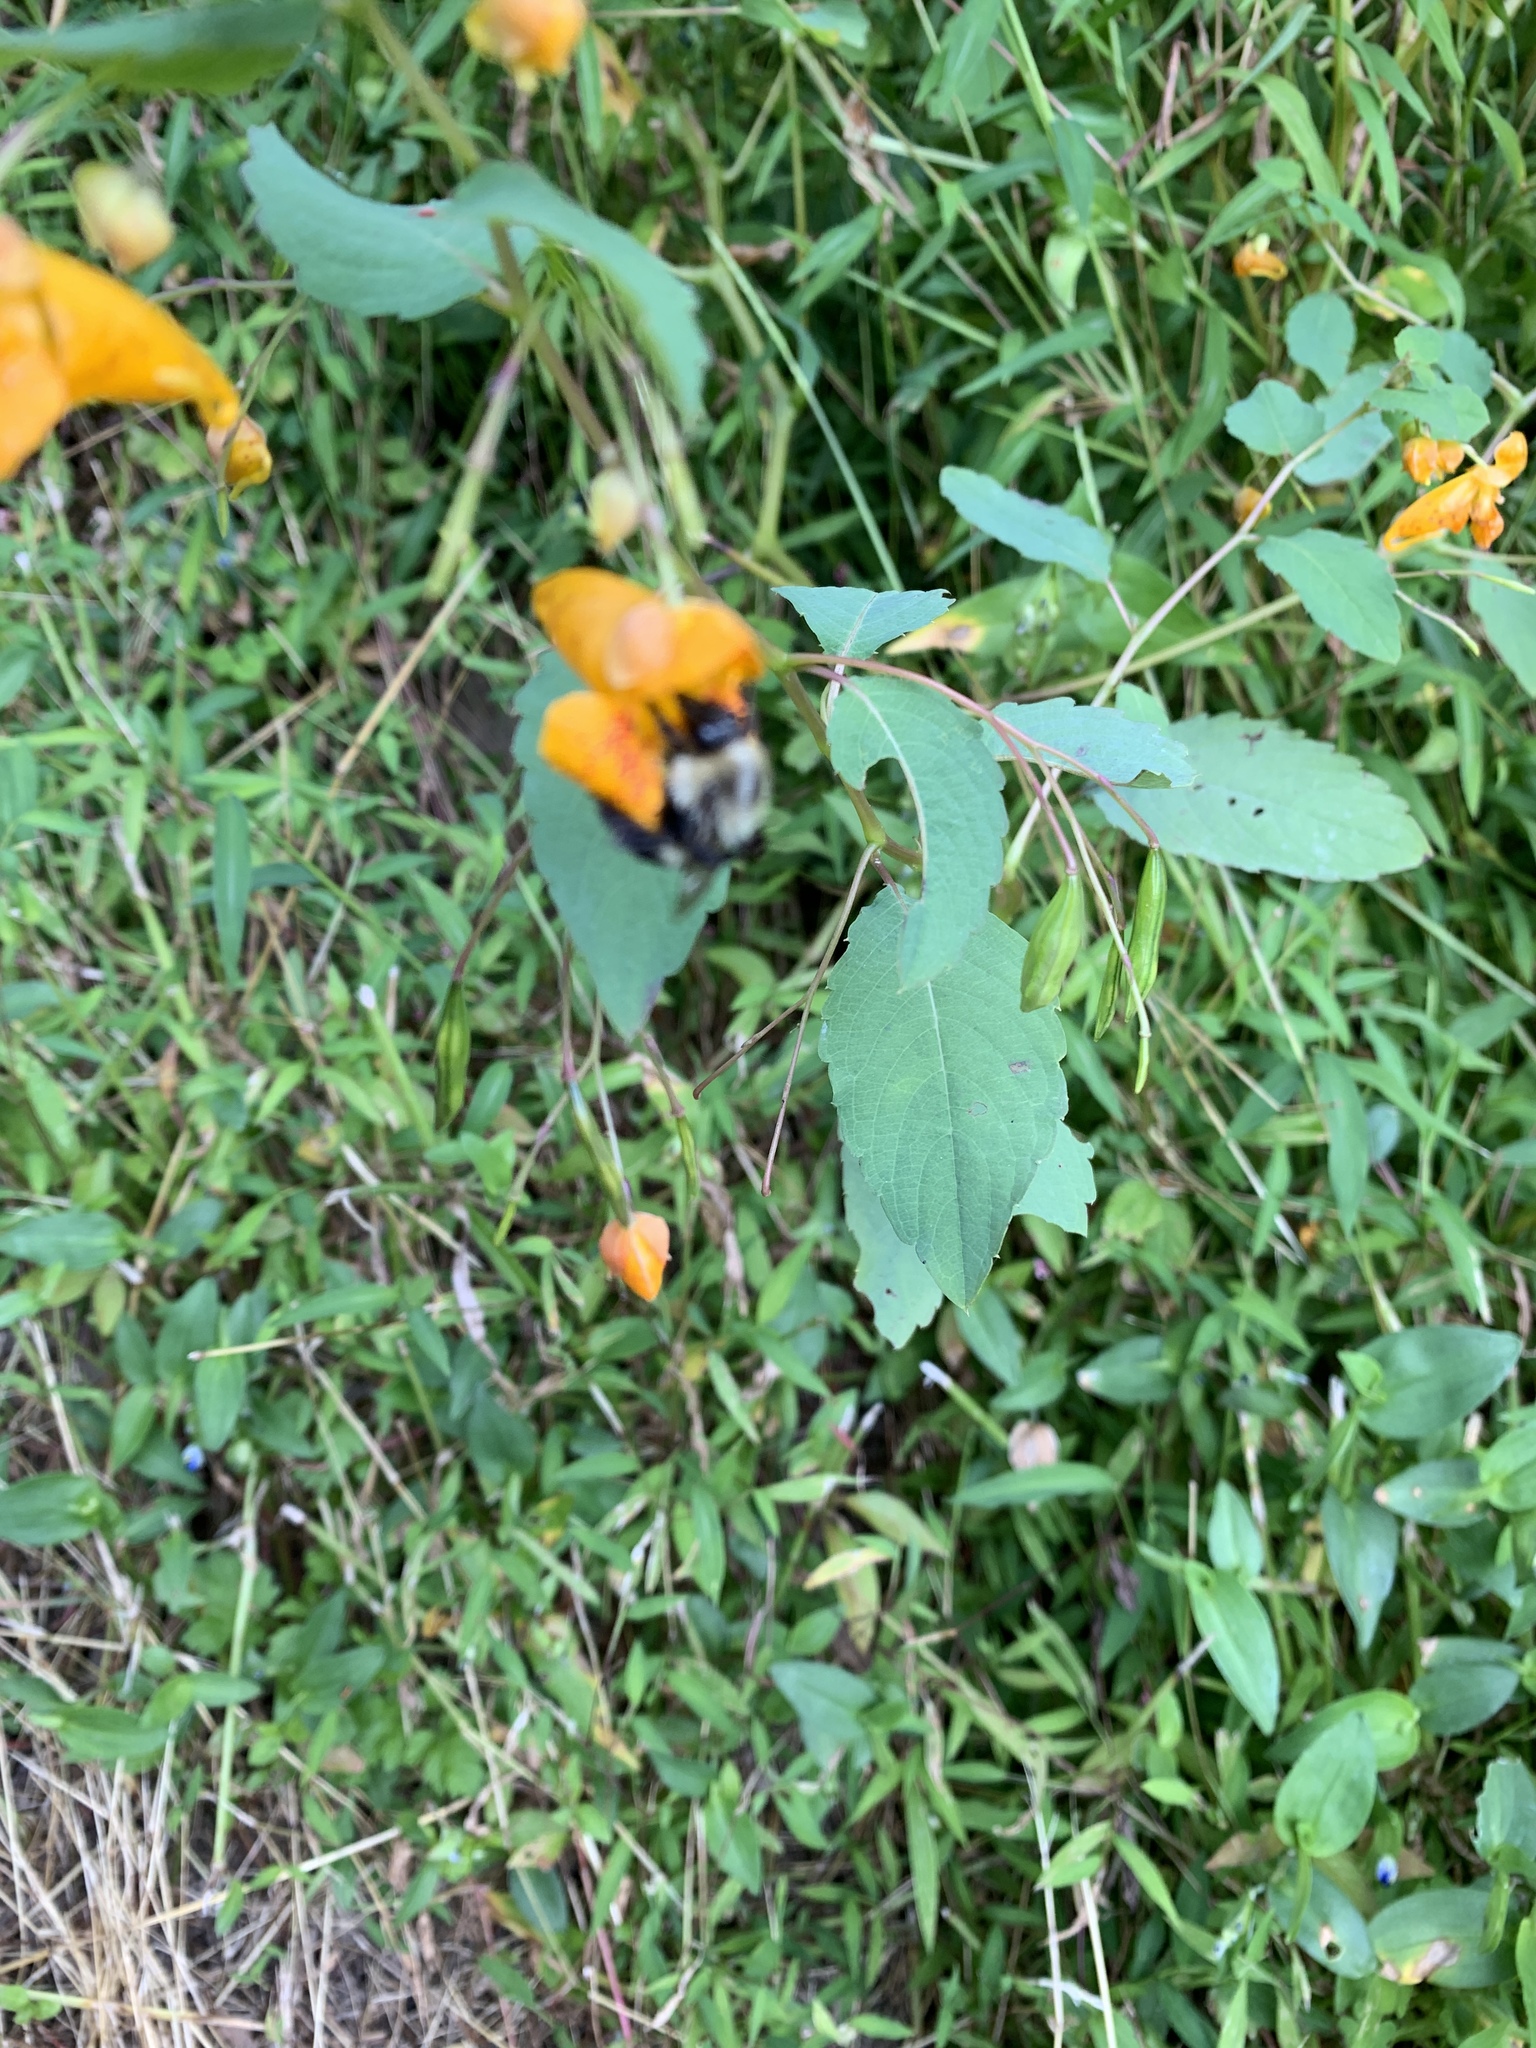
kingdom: Animalia
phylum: Arthropoda
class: Insecta
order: Hymenoptera
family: Apidae
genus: Bombus
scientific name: Bombus impatiens
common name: Common eastern bumble bee
